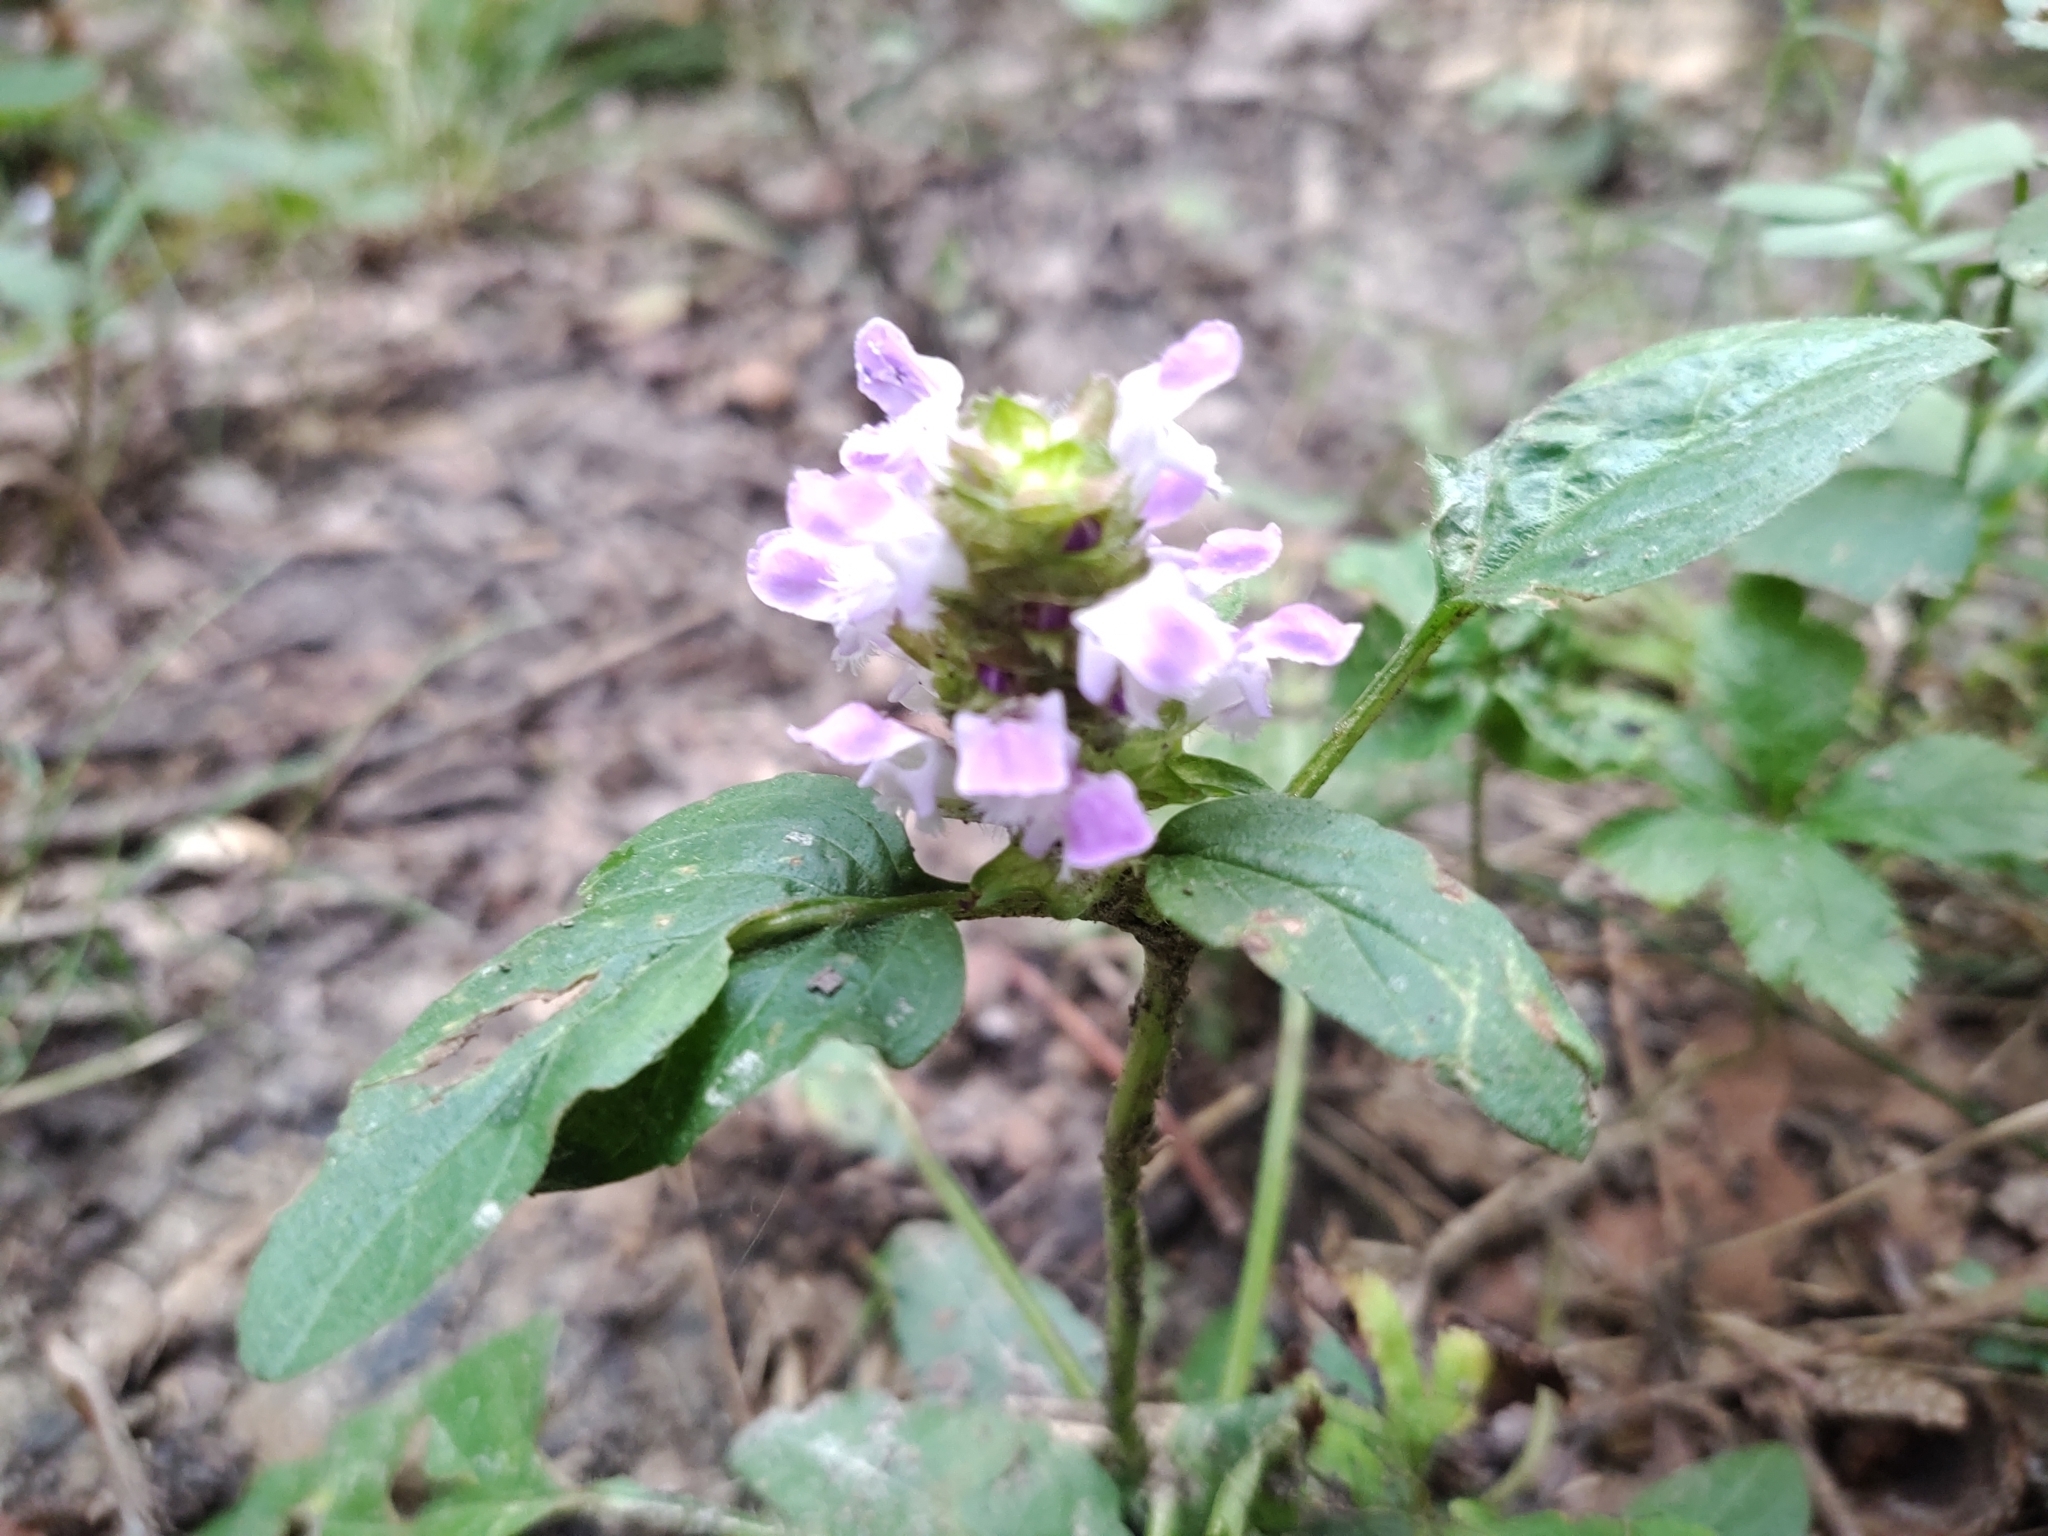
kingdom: Plantae
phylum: Tracheophyta
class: Magnoliopsida
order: Lamiales
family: Lamiaceae
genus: Prunella
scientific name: Prunella vulgaris
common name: Heal-all
